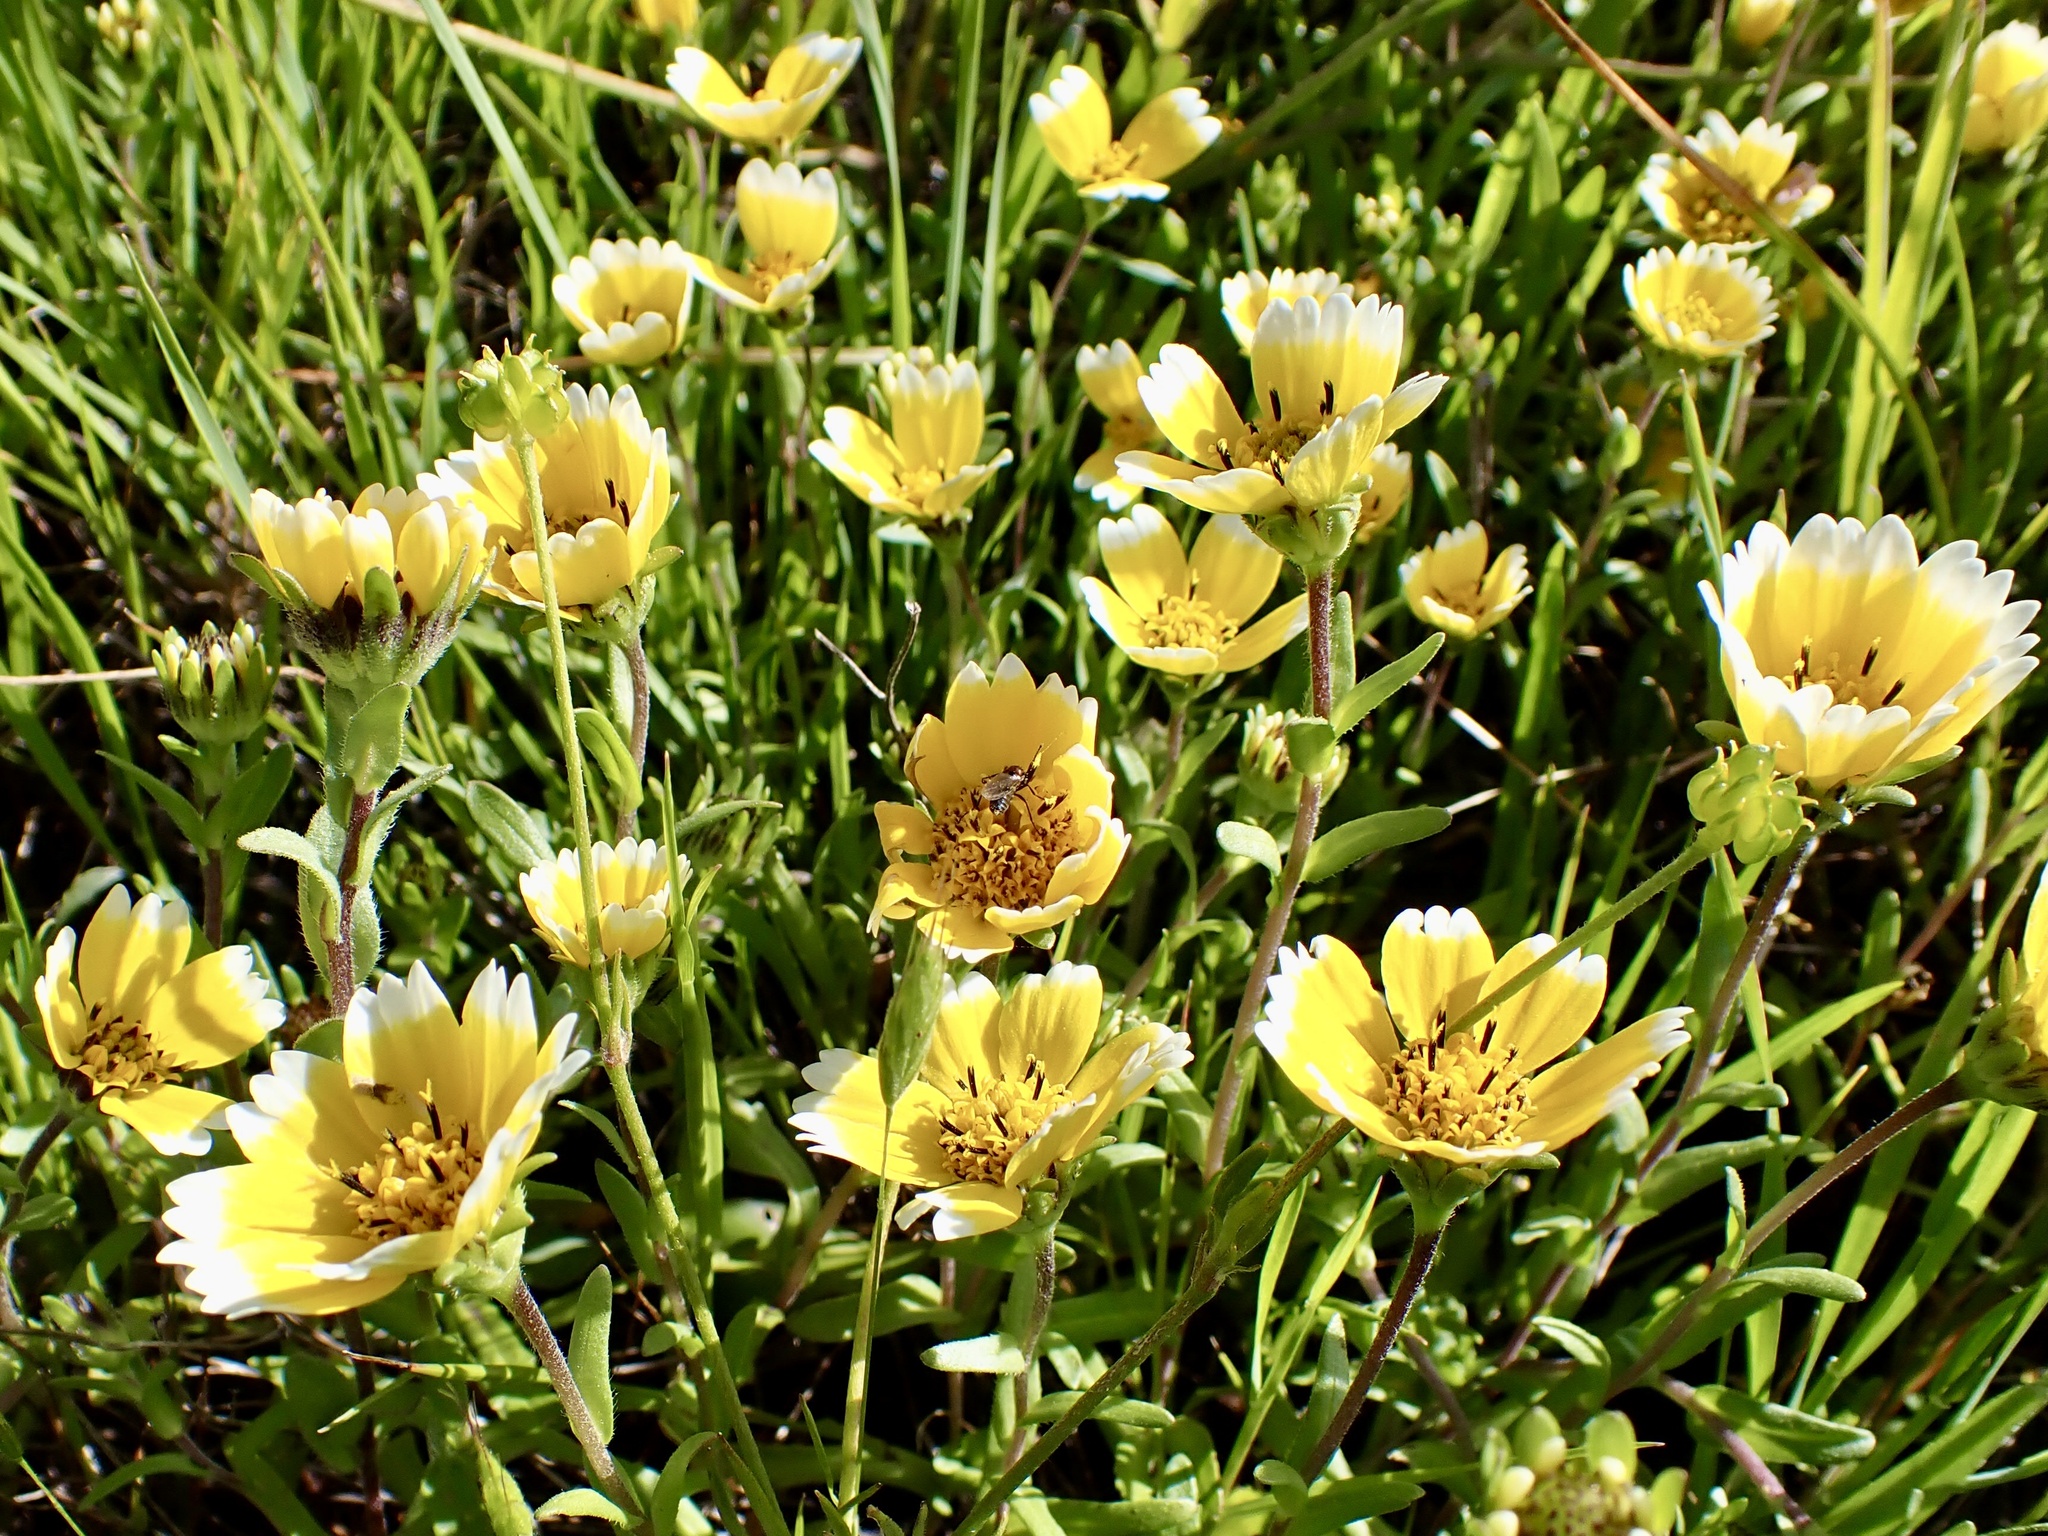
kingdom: Plantae
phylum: Tracheophyta
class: Magnoliopsida
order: Asterales
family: Asteraceae
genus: Layia
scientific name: Layia chrysanthemoides
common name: Smooth layia
